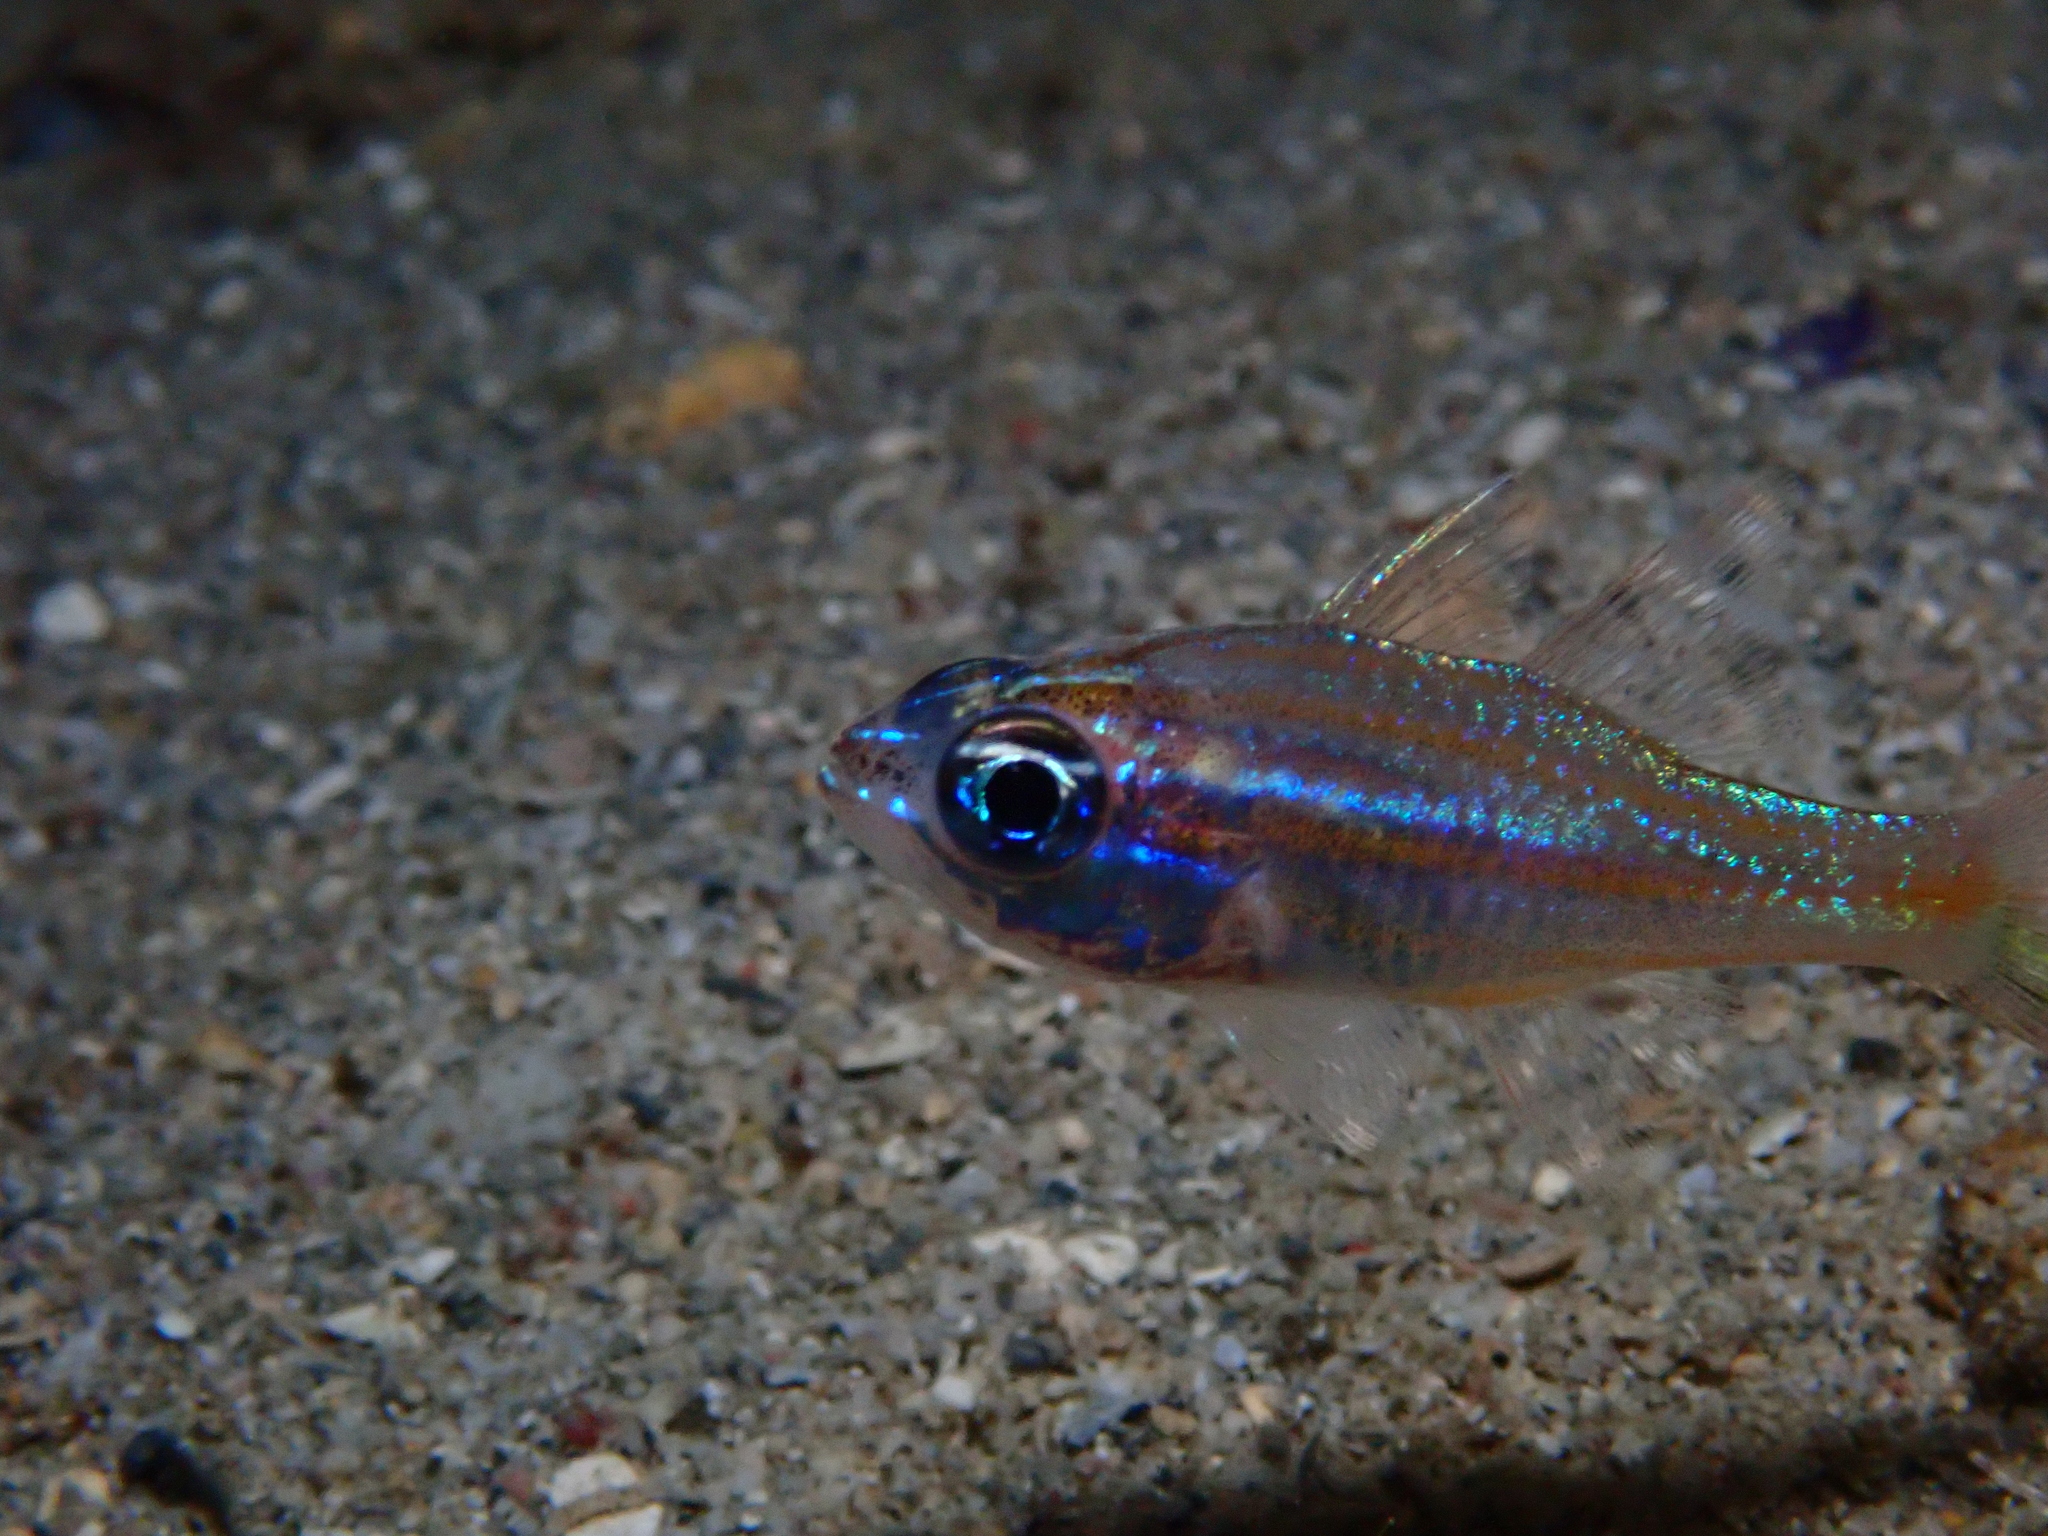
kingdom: Animalia
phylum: Chordata
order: Perciformes
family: Apogonidae
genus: Ostorhinchus
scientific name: Ostorhinchus cyanosoma
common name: Yellow-striped cardinalfish
